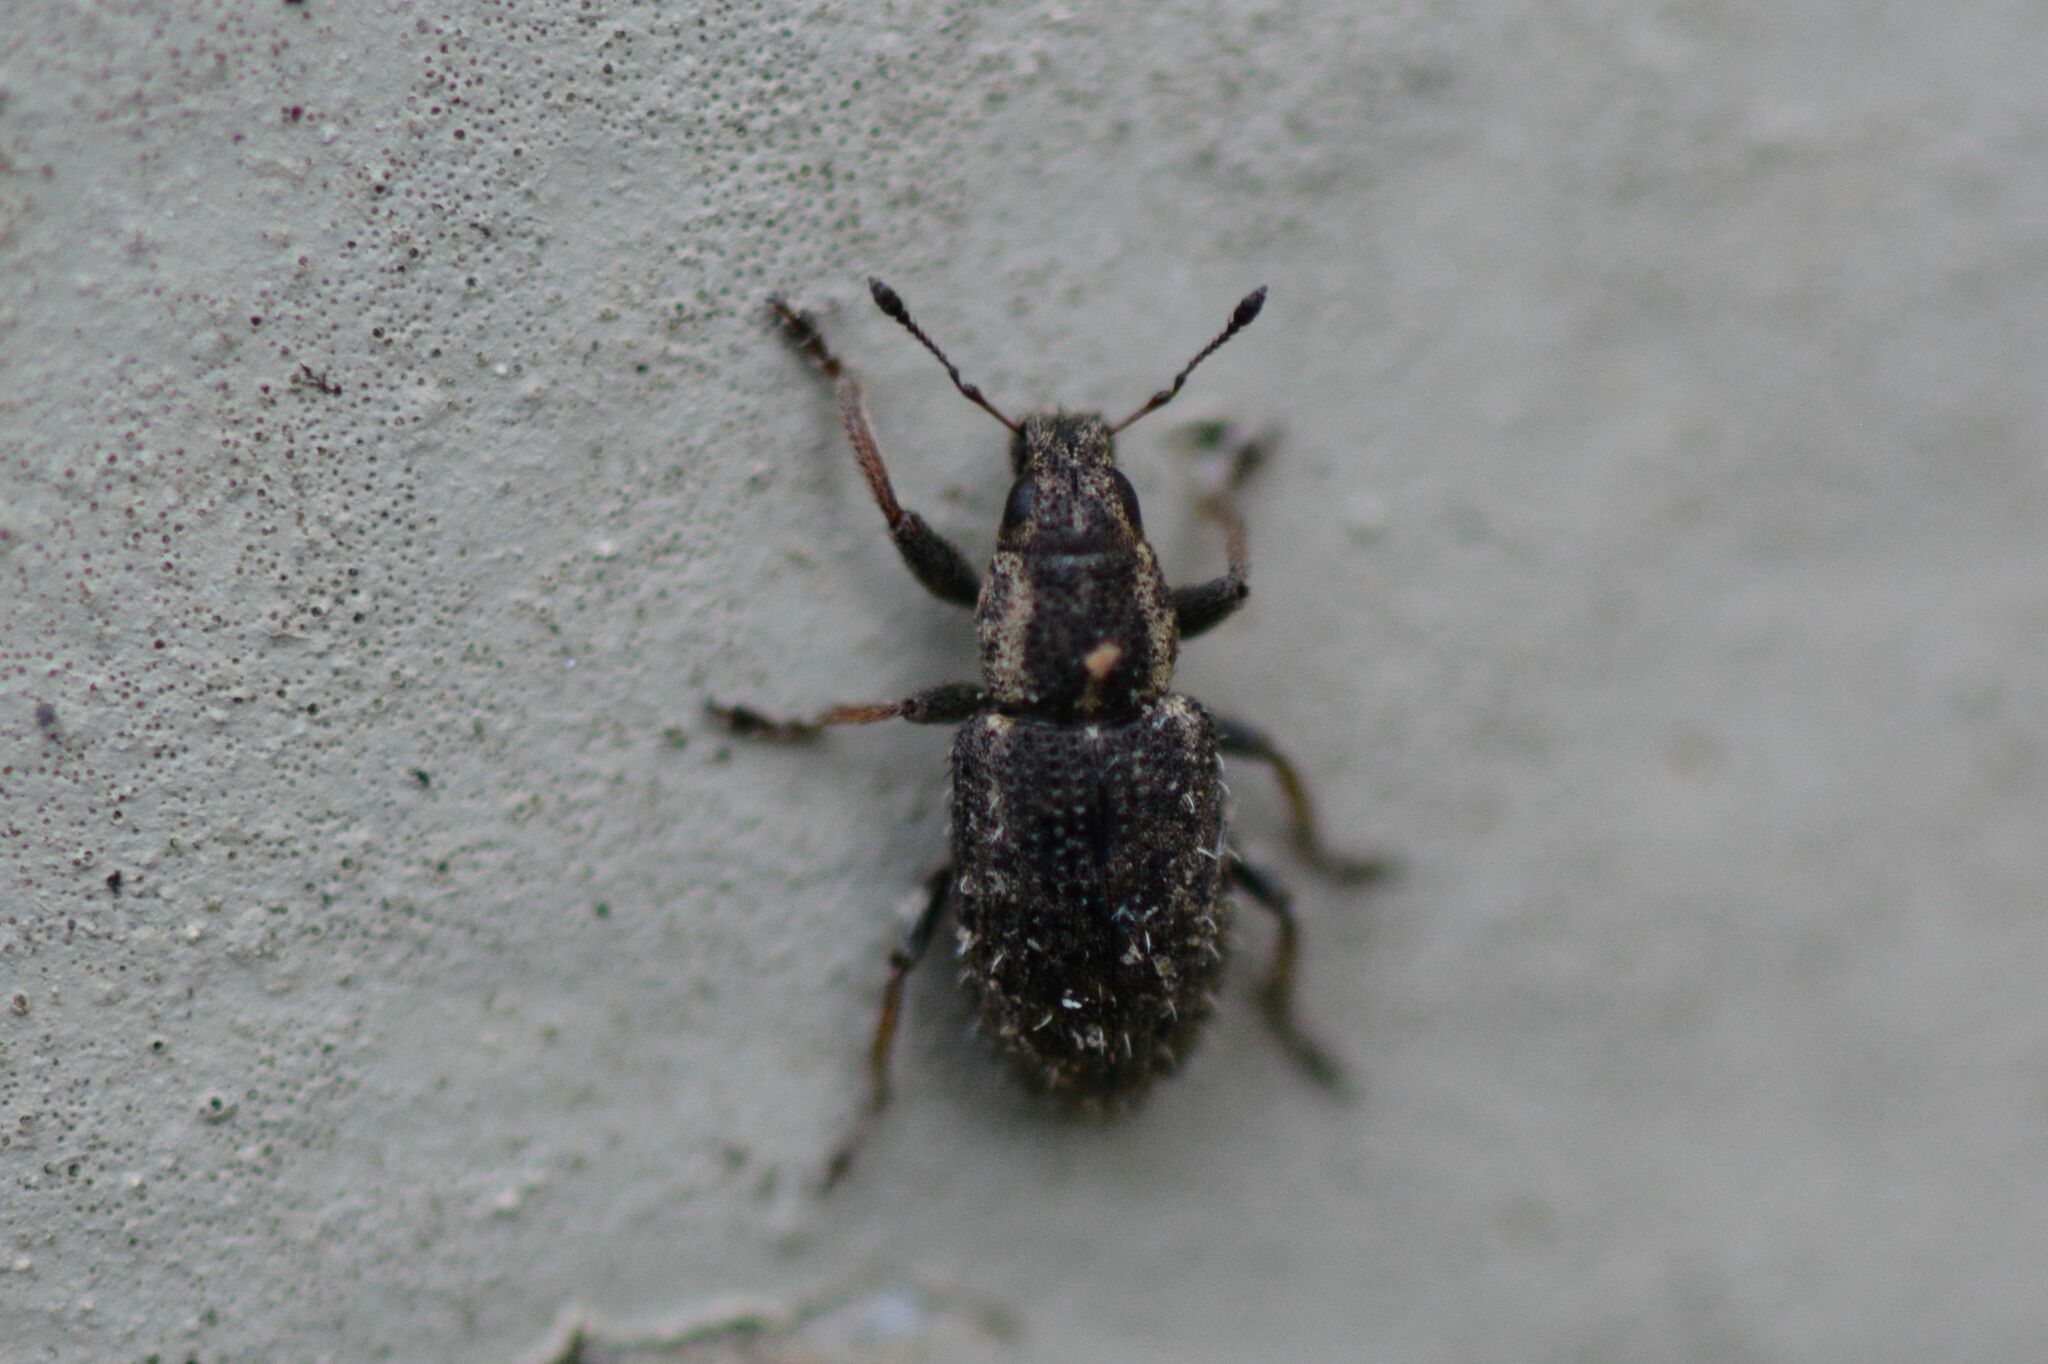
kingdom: Animalia
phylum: Arthropoda
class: Insecta
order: Coleoptera
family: Curculionidae
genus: Sitona
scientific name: Sitona hispidulus
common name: Clover weevil
